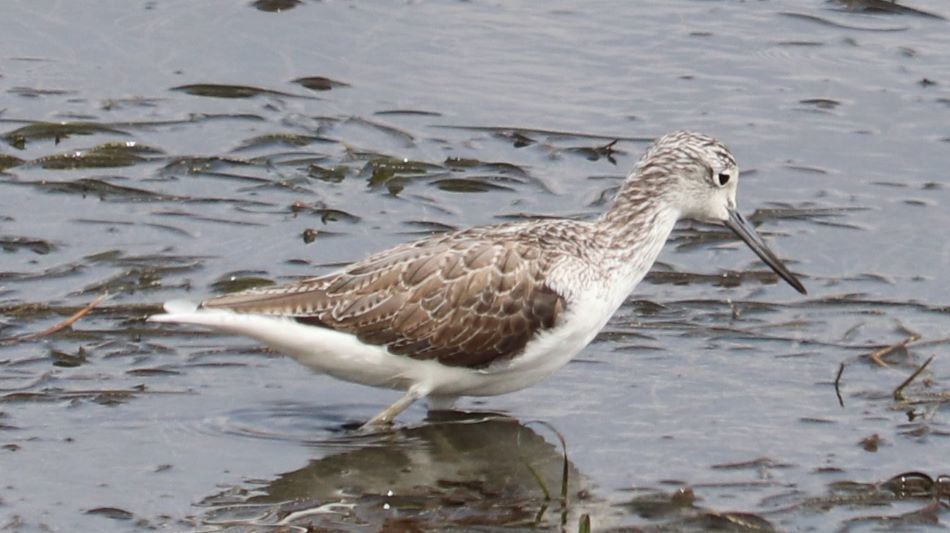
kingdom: Animalia
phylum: Chordata
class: Aves
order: Charadriiformes
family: Scolopacidae
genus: Tringa
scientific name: Tringa nebularia
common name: Common greenshank
